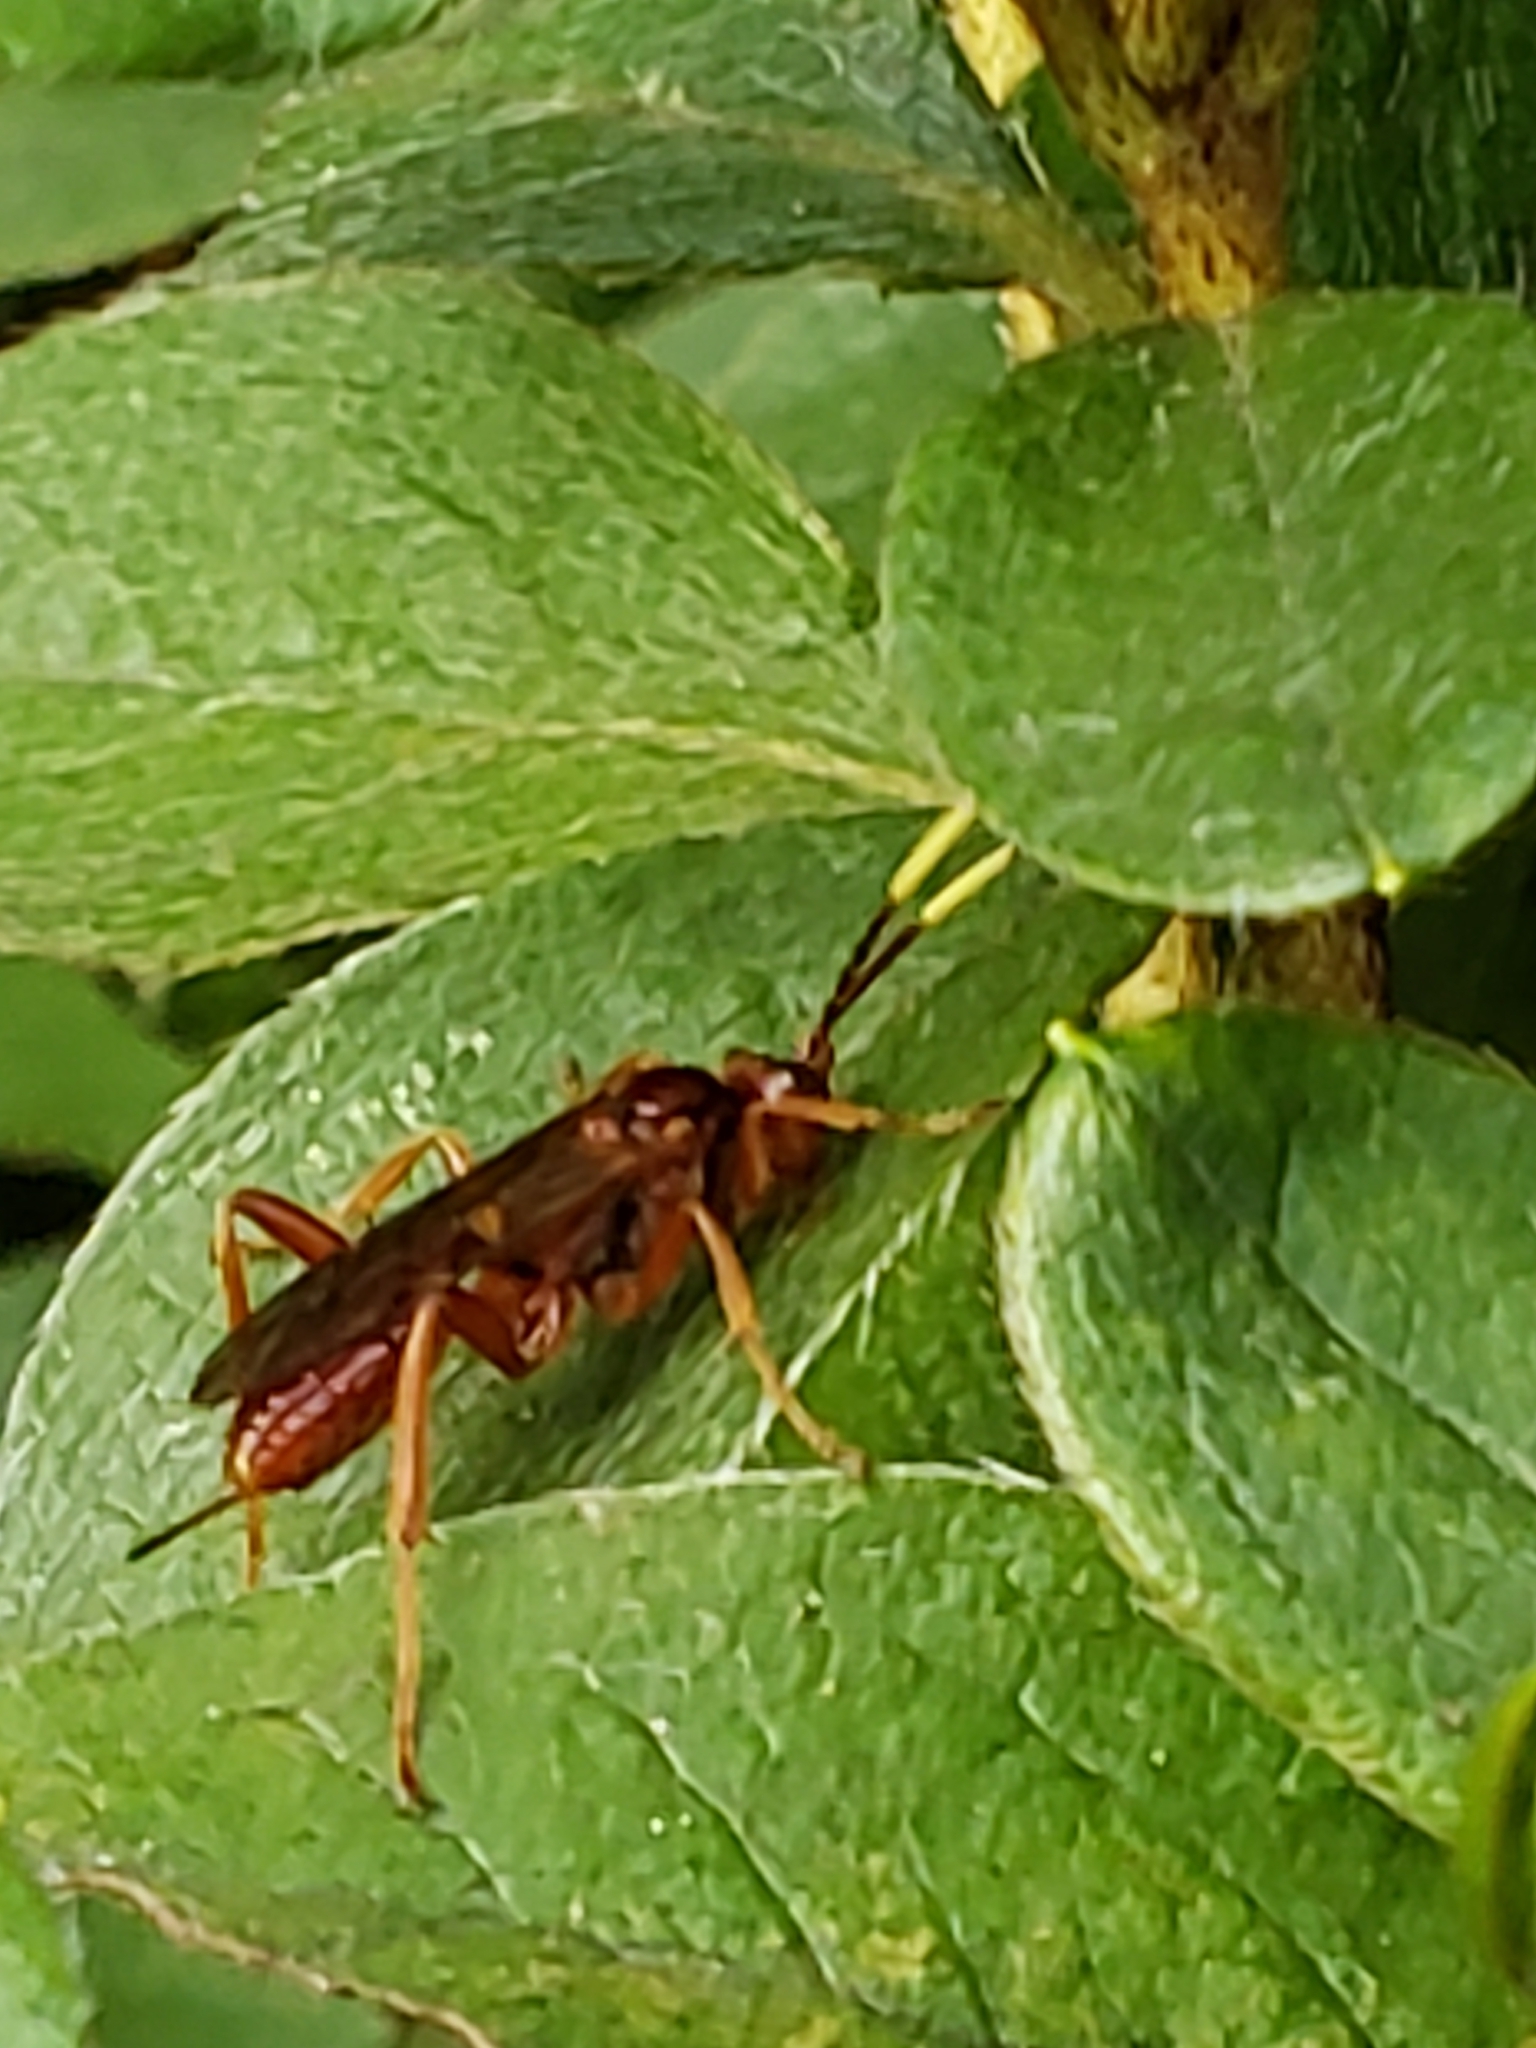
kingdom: Animalia
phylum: Arthropoda
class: Insecta
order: Hymenoptera
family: Ichneumonidae
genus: Polytribax
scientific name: Polytribax pallescens
